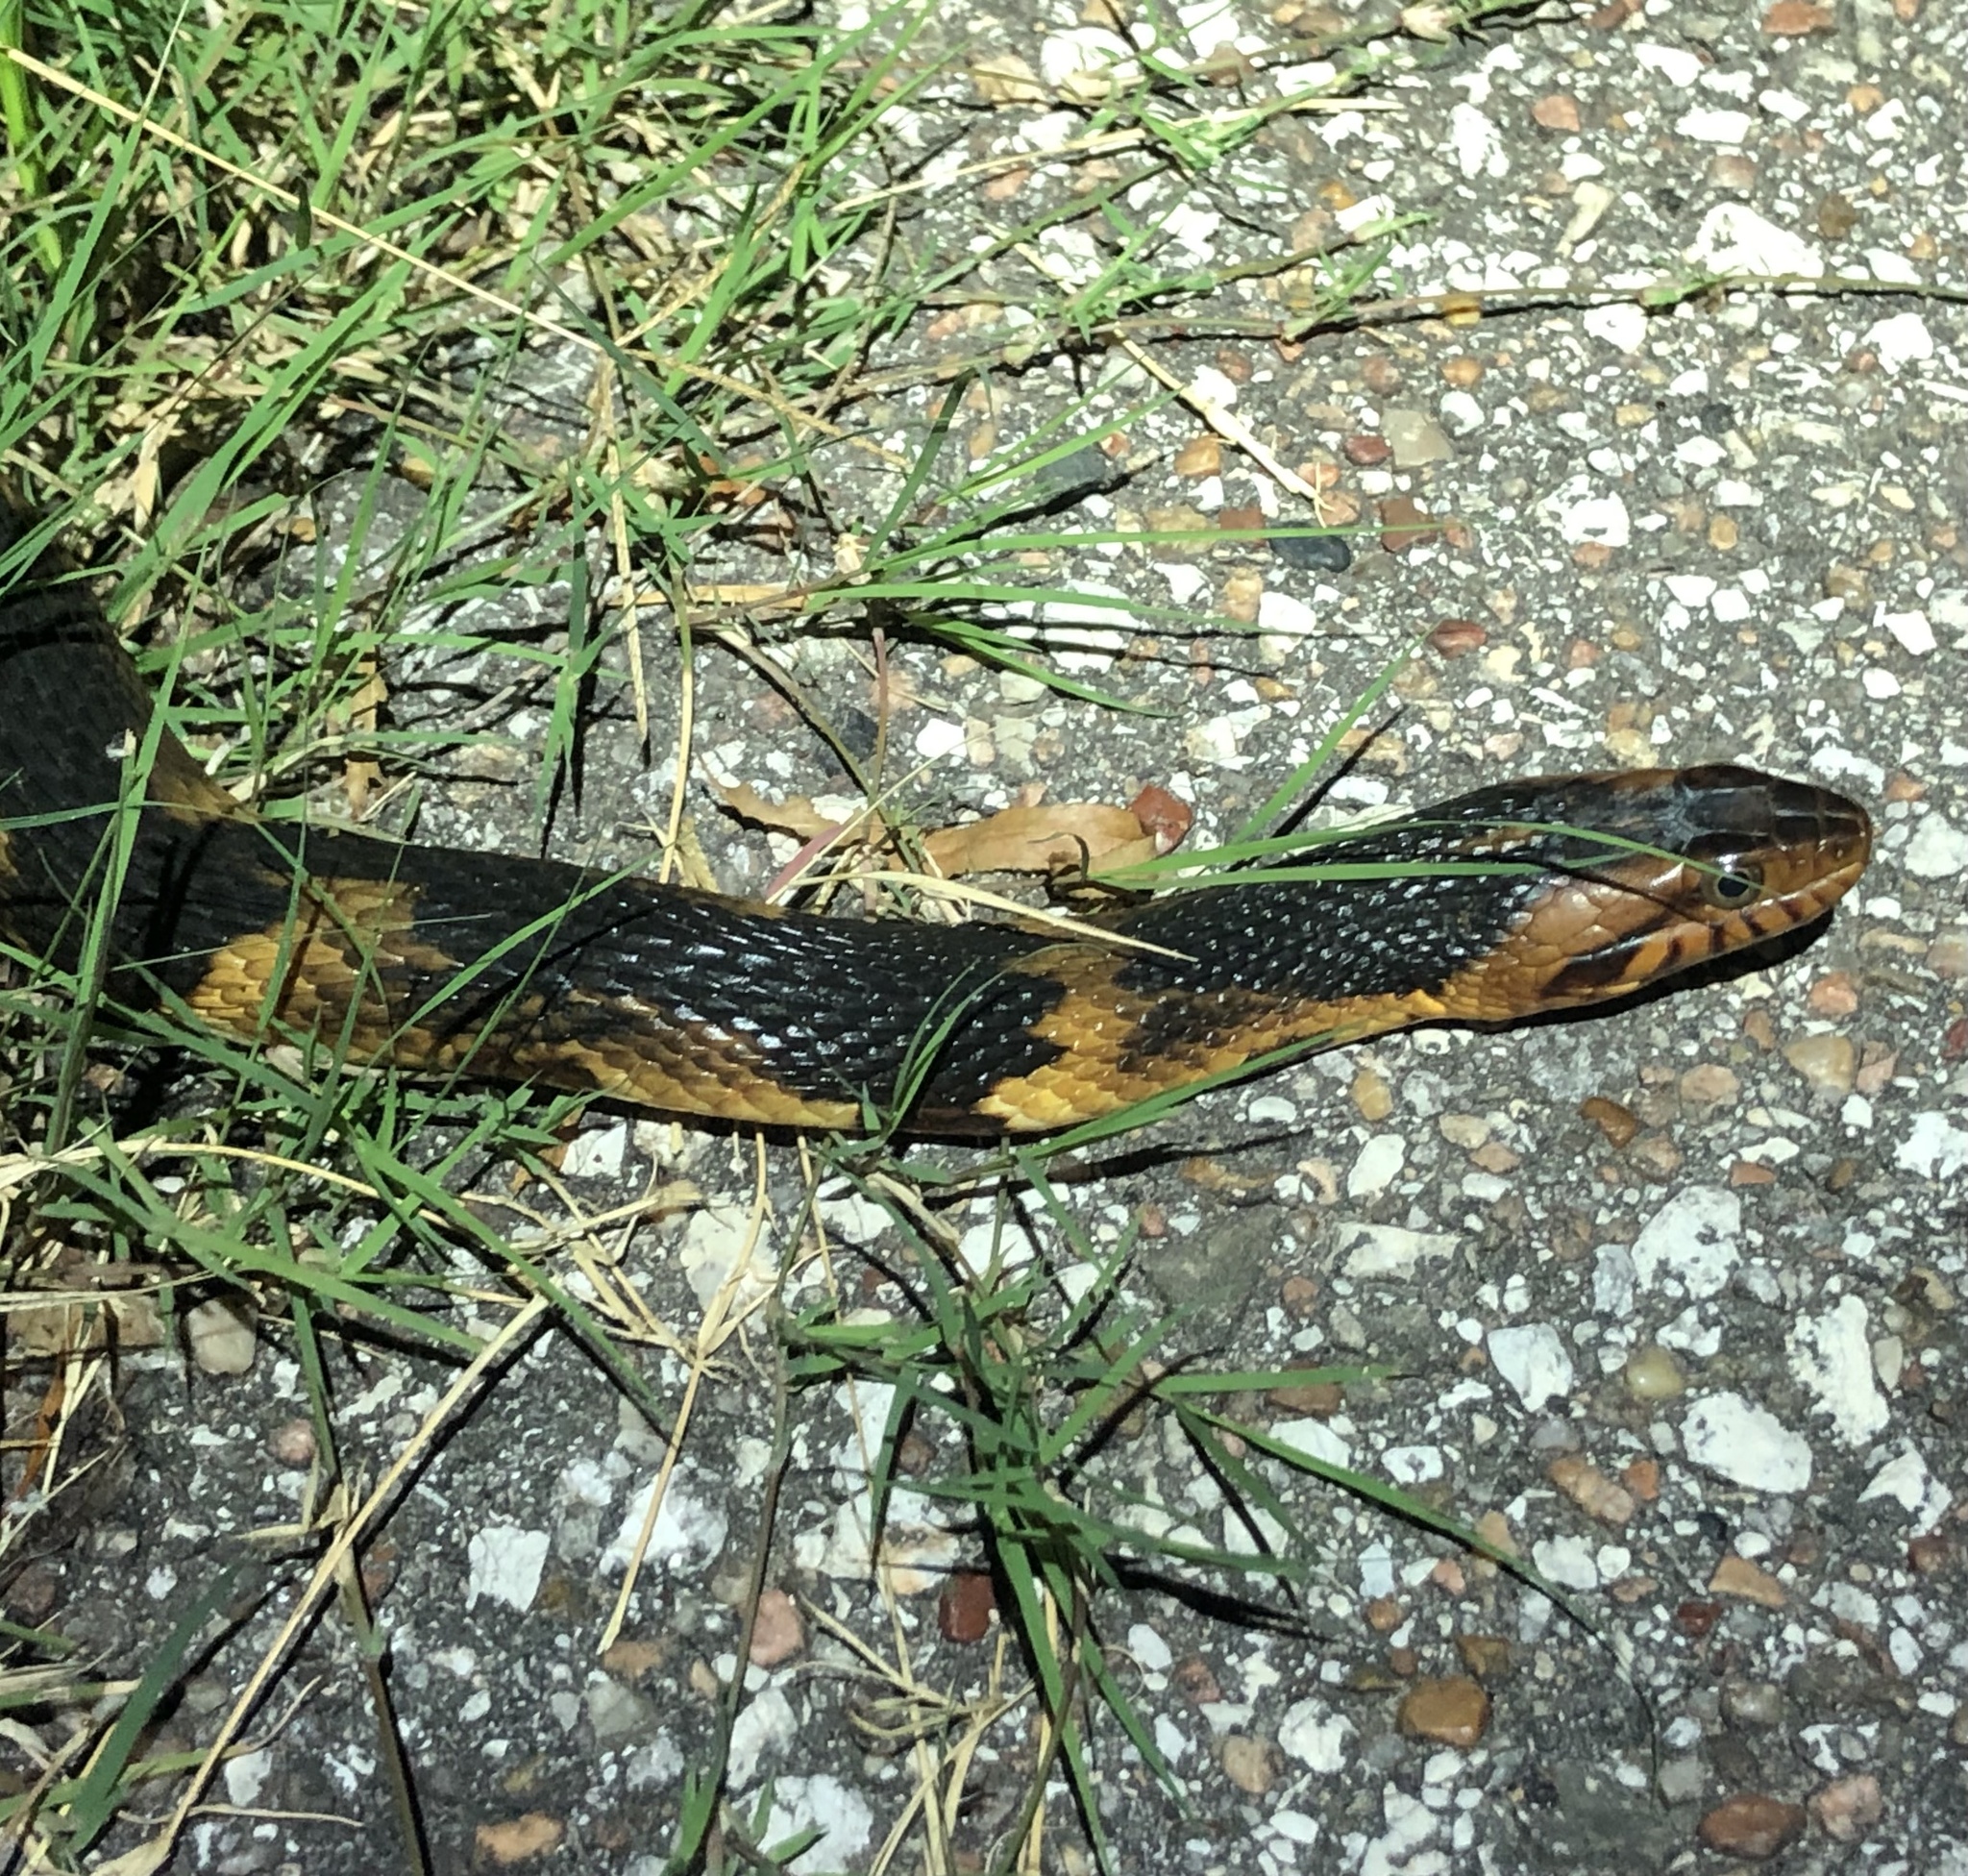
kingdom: Animalia
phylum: Chordata
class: Squamata
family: Colubridae
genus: Nerodia
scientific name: Nerodia fasciata
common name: Southern water snake
